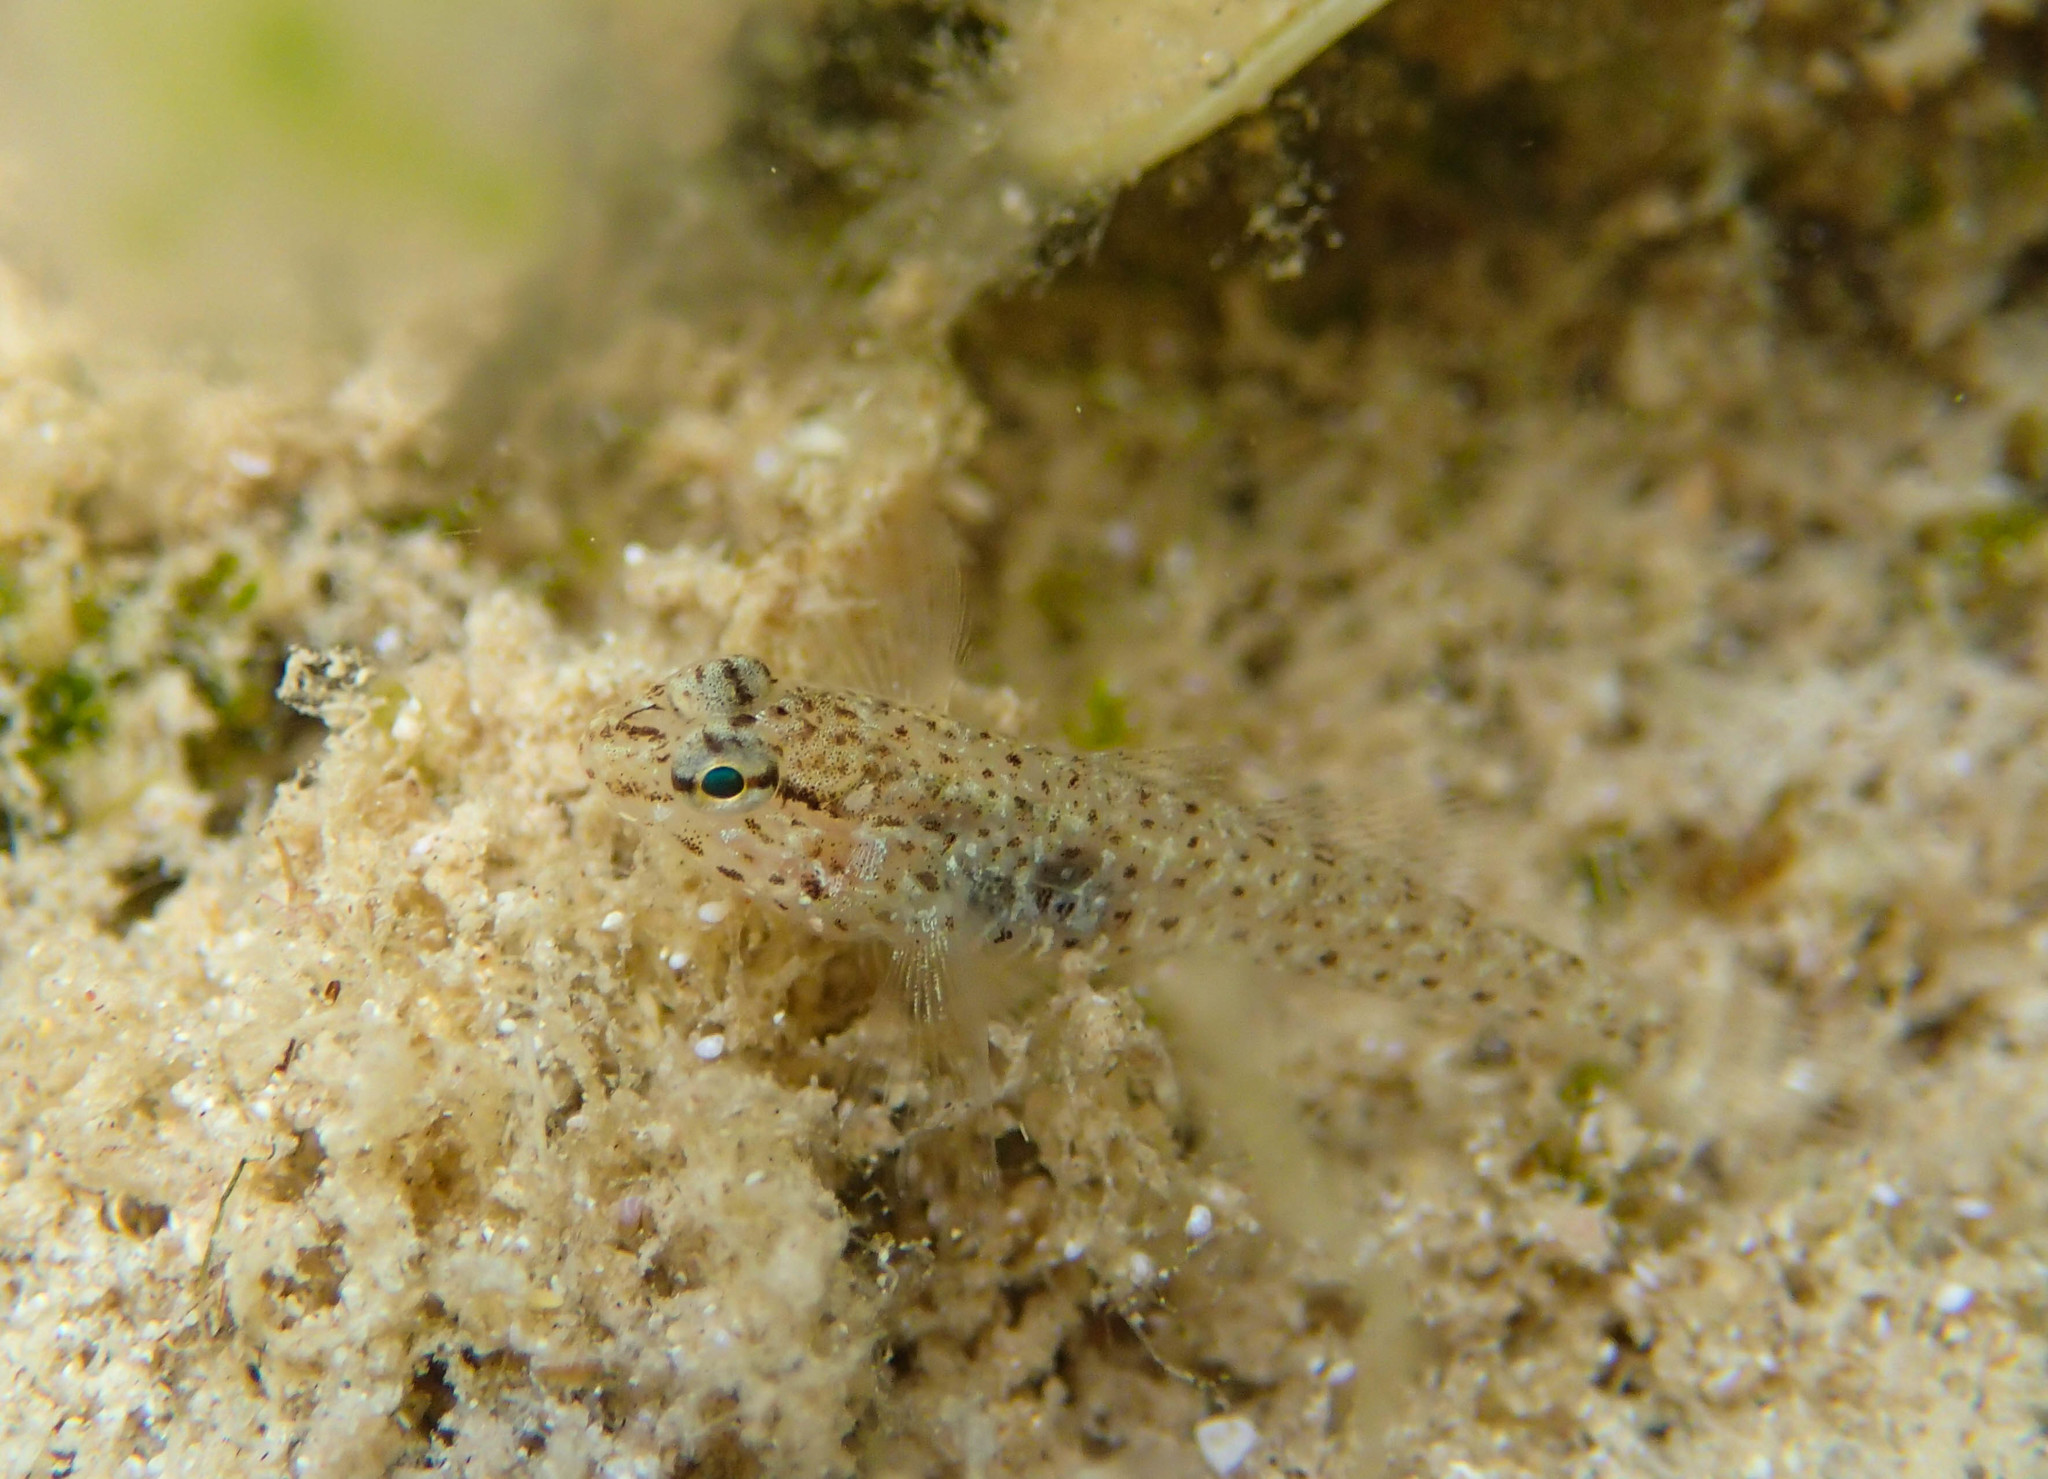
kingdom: Animalia
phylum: Chordata
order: Perciformes
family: Gobiidae
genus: Gobius
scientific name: Gobius incognitus
